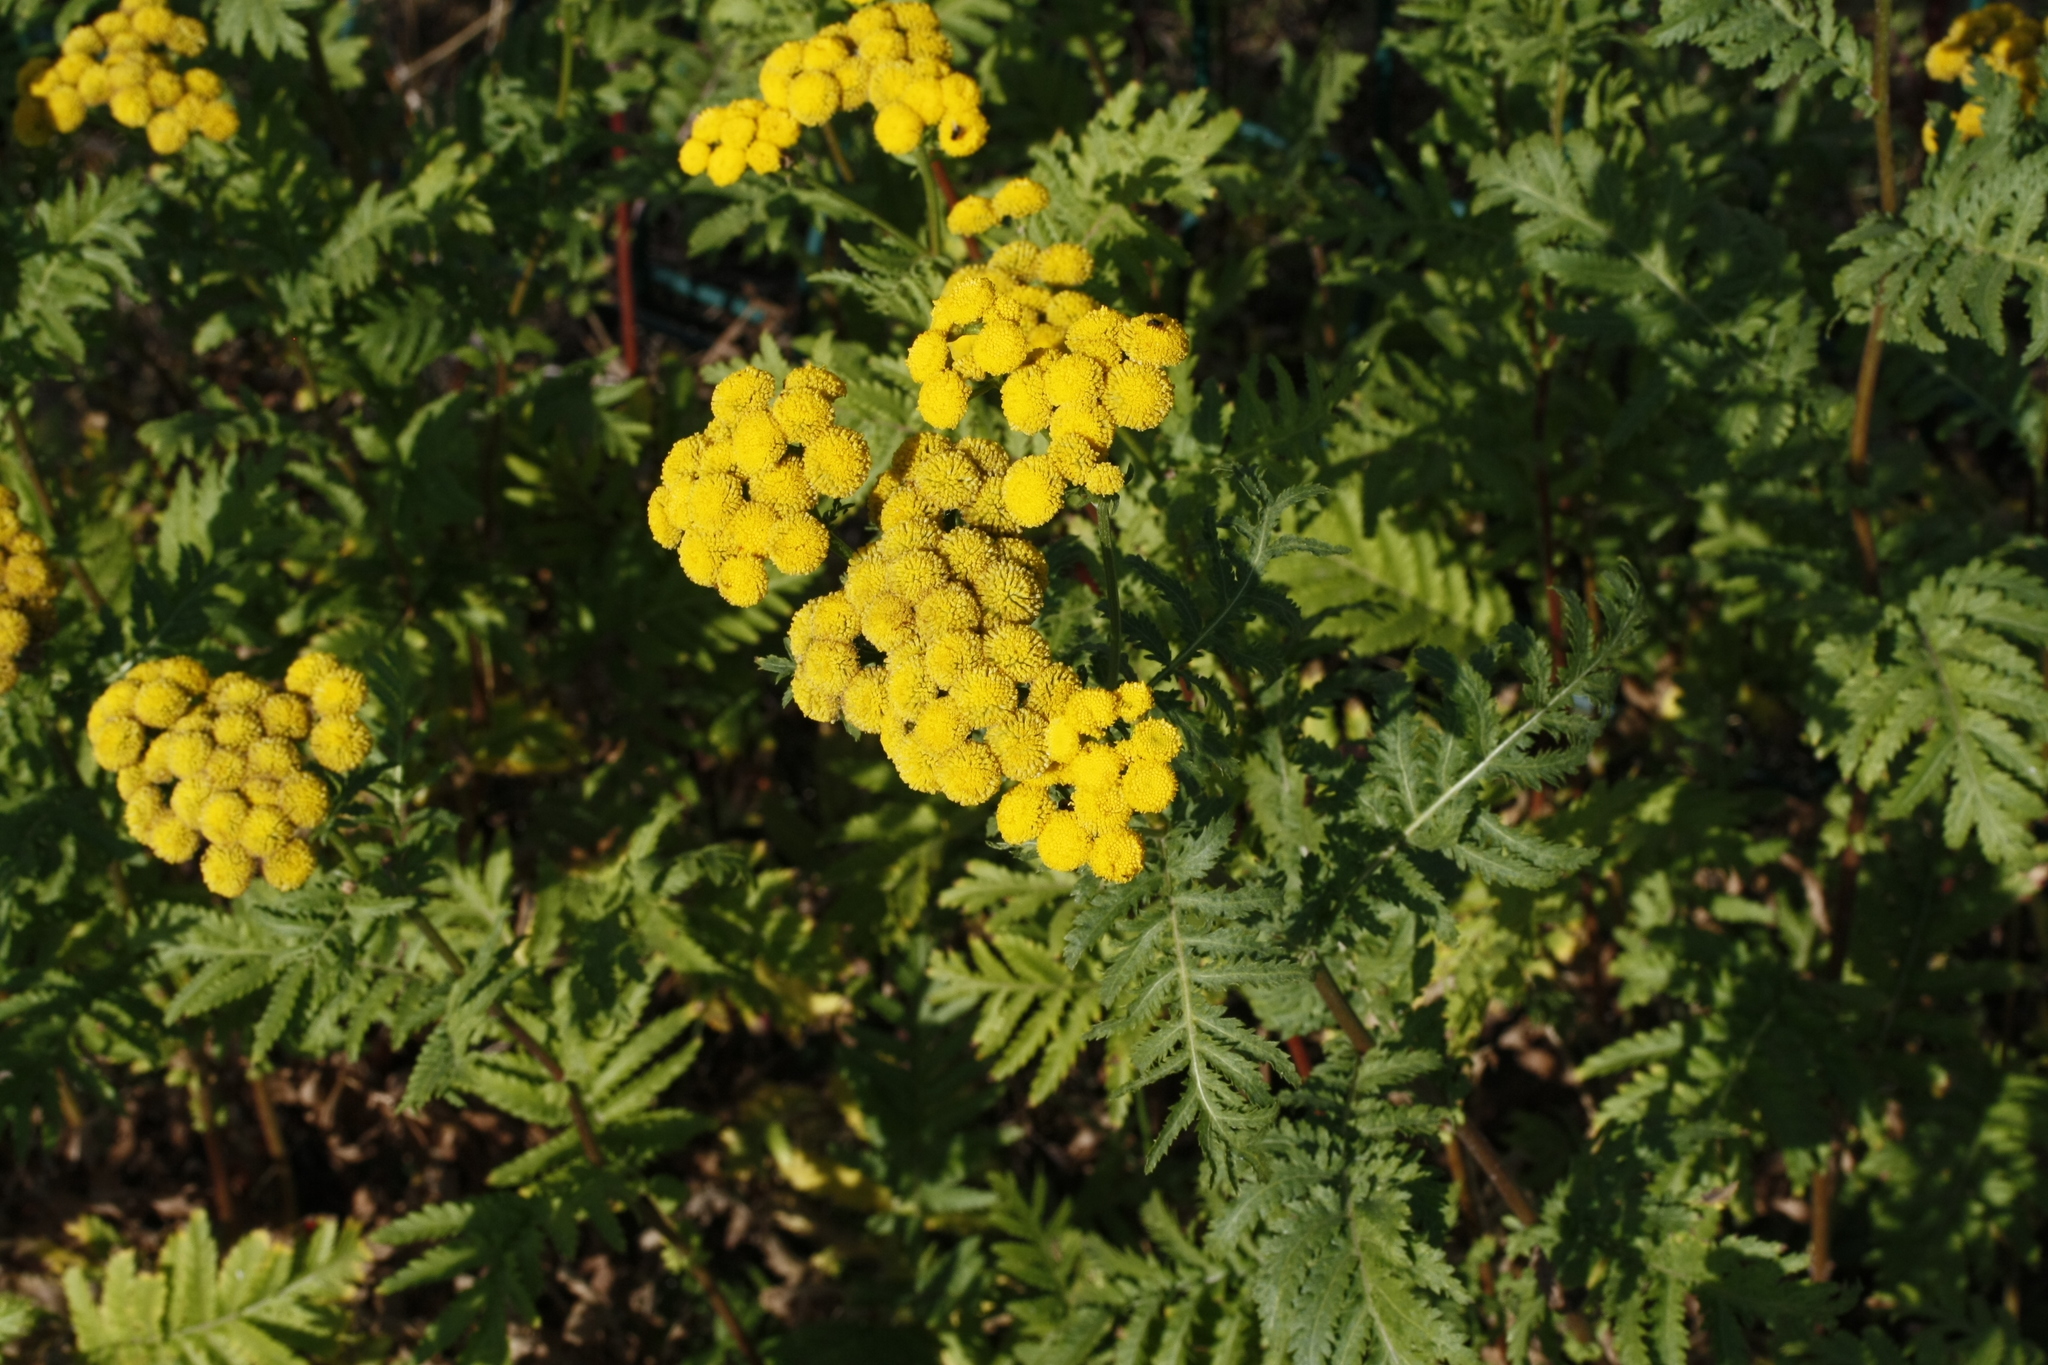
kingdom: Plantae
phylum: Tracheophyta
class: Magnoliopsida
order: Asterales
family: Asteraceae
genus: Tanacetum
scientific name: Tanacetum vulgare
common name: Common tansy
